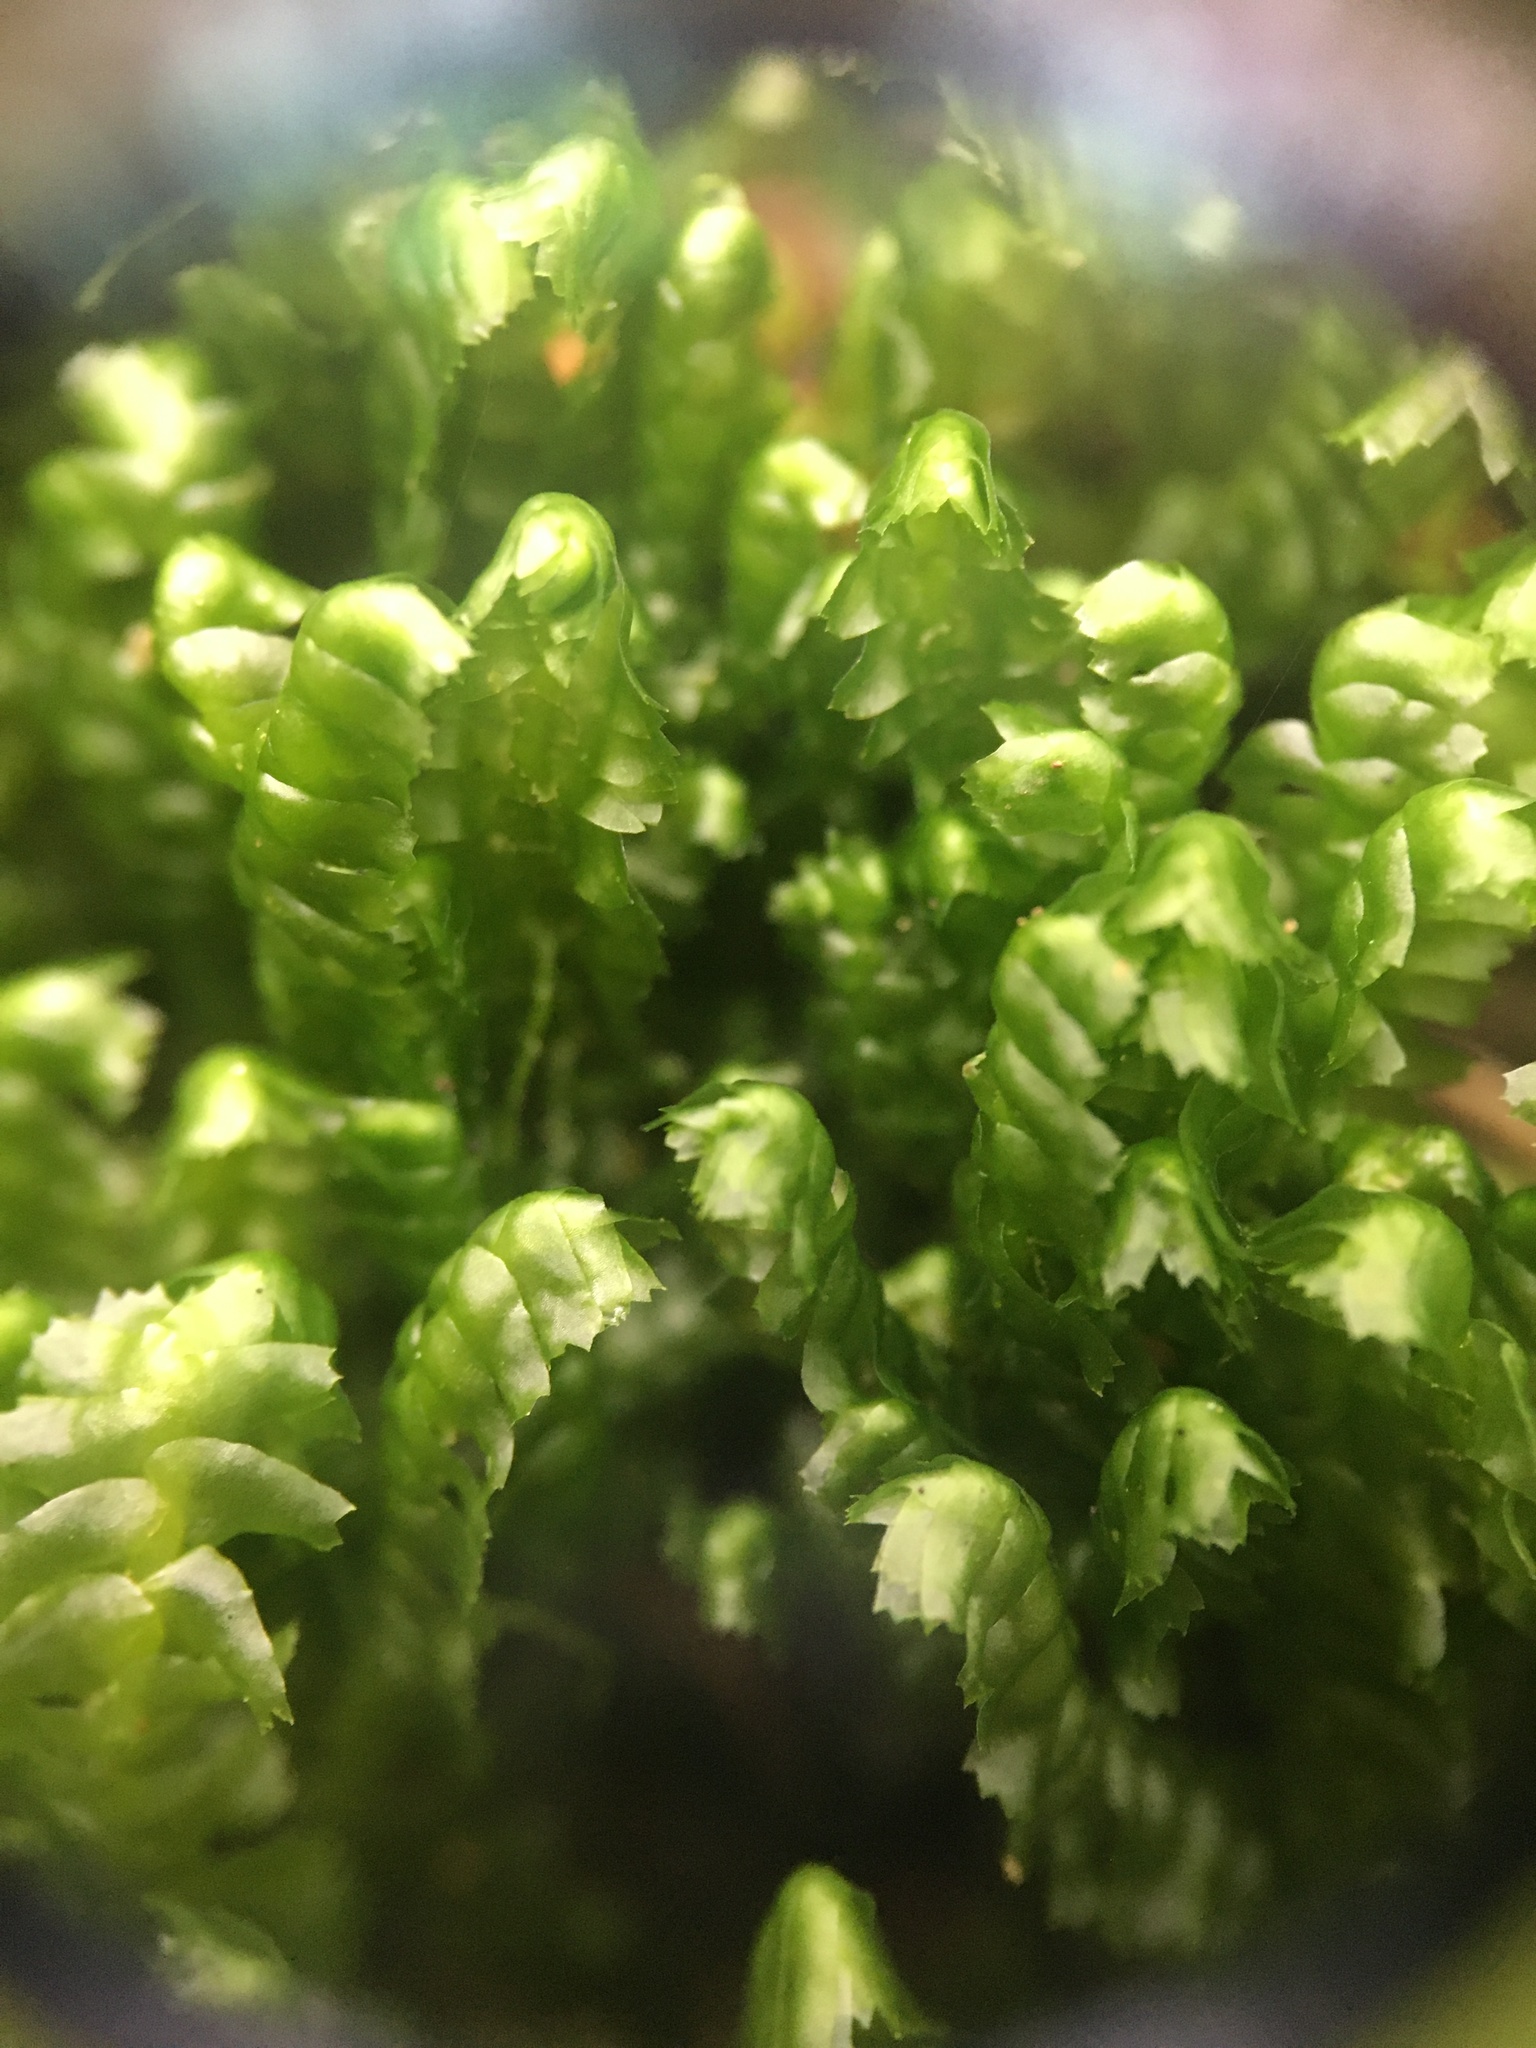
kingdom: Plantae
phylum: Marchantiophyta
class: Jungermanniopsida
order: Jungermanniales
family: Lepidoziaceae
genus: Bazzania
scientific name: Bazzania trilobata
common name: Three-lobed whipwort
